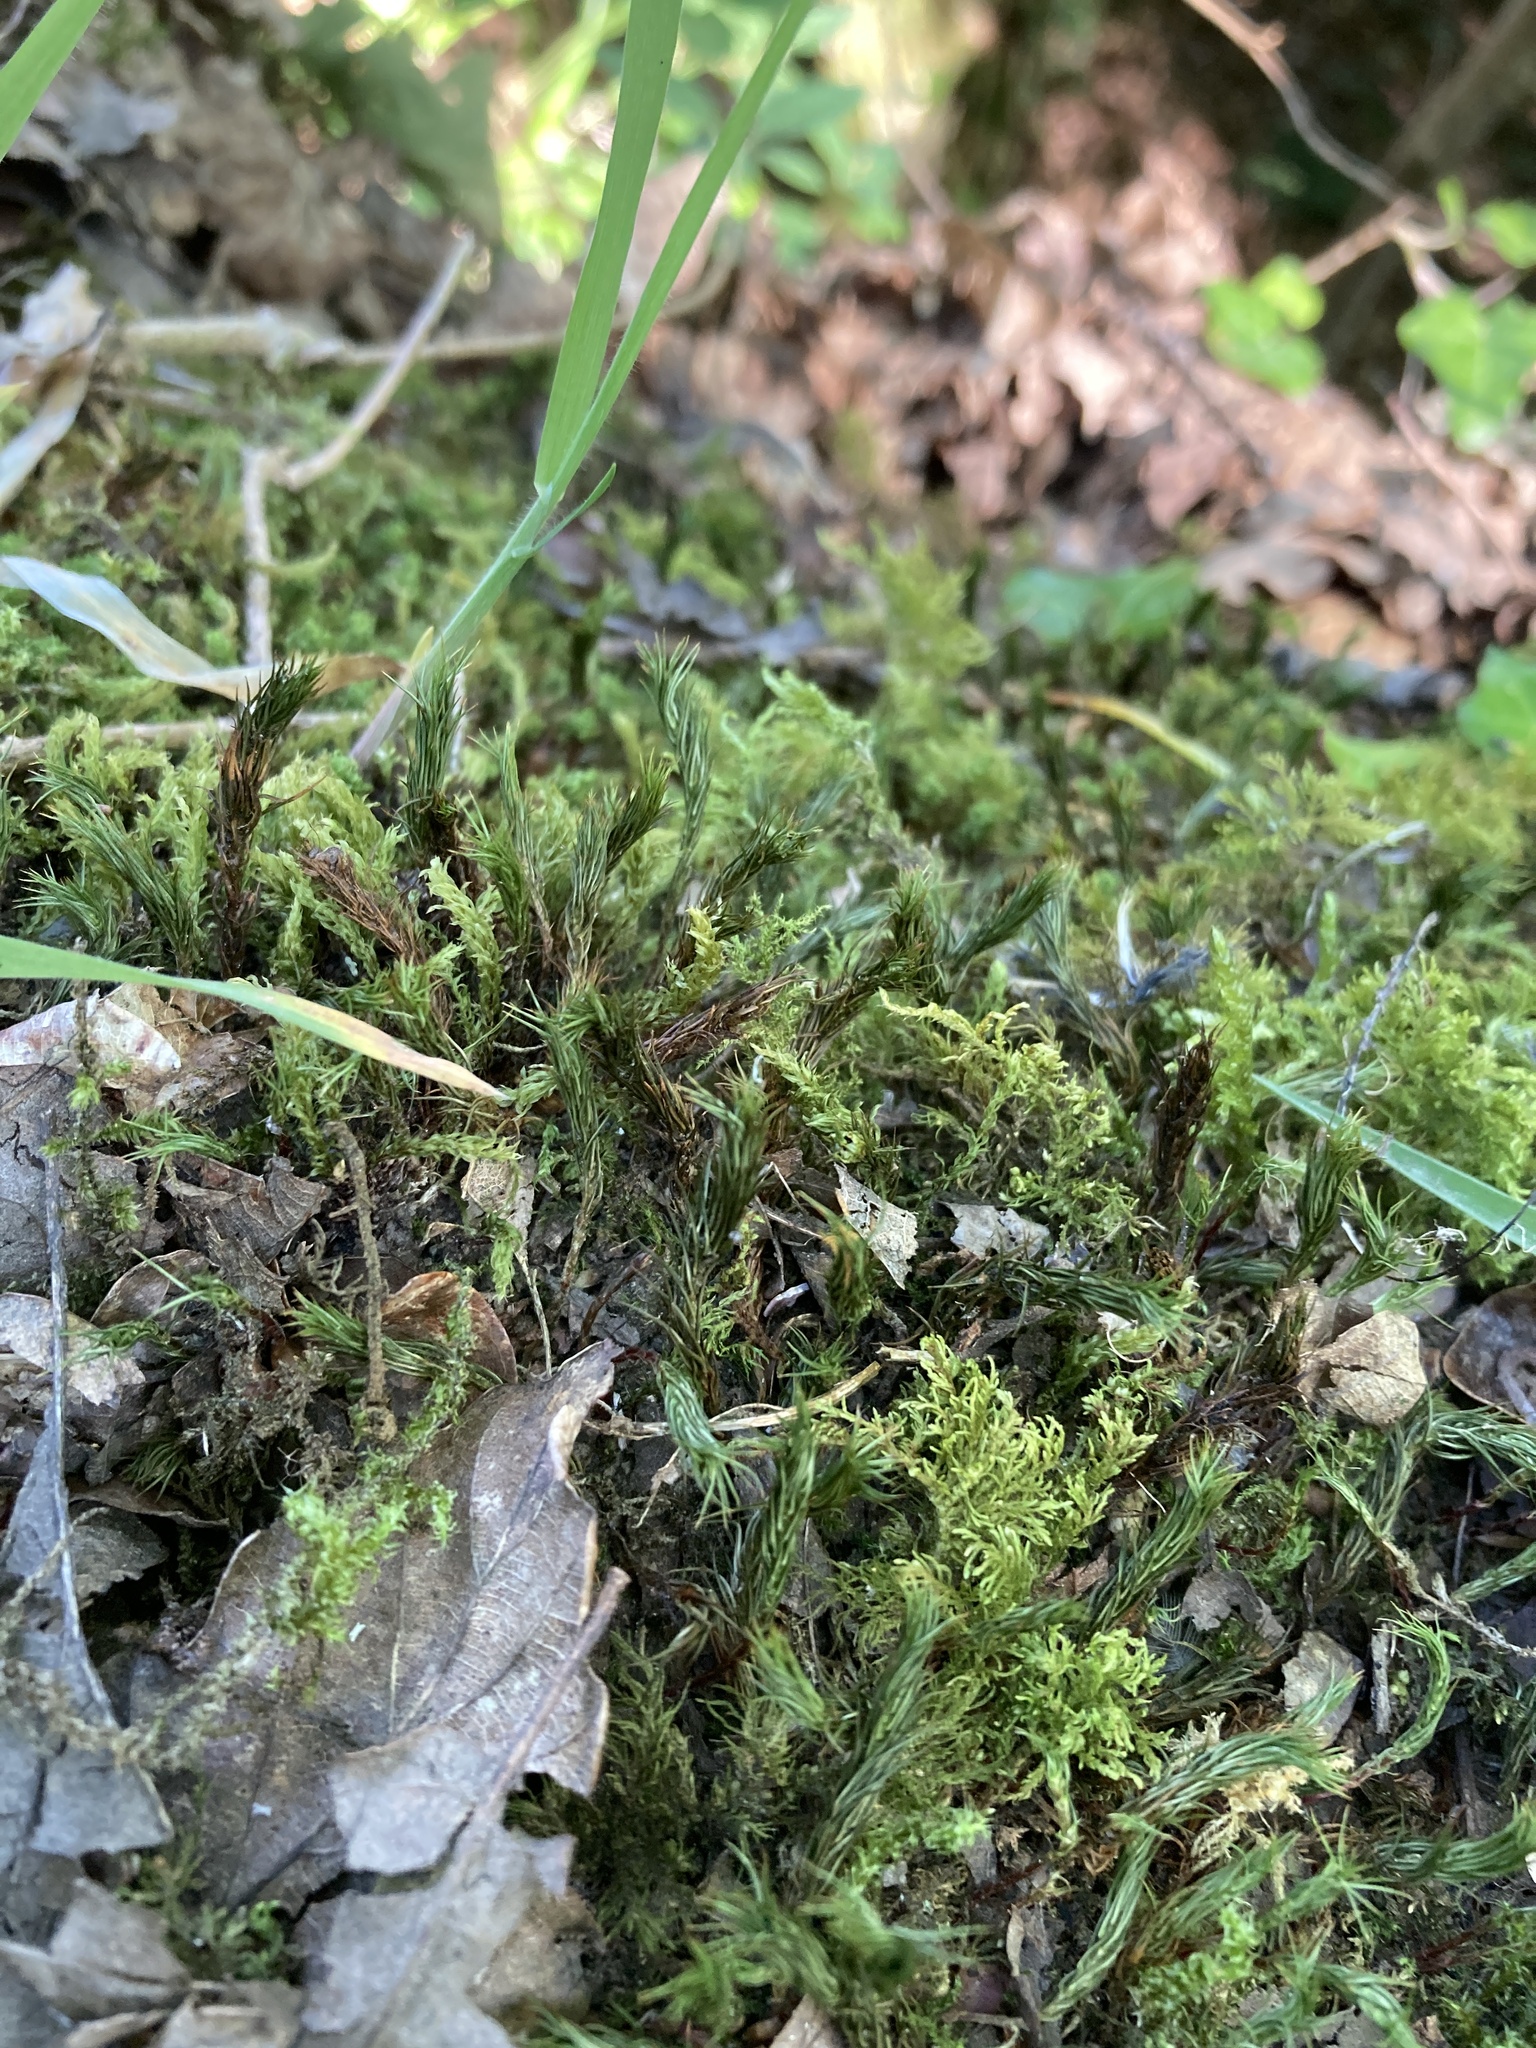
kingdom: Plantae
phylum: Bryophyta
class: Polytrichopsida
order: Polytrichales
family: Polytrichaceae
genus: Polytrichum
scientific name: Polytrichum formosum
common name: Bank haircap moss
